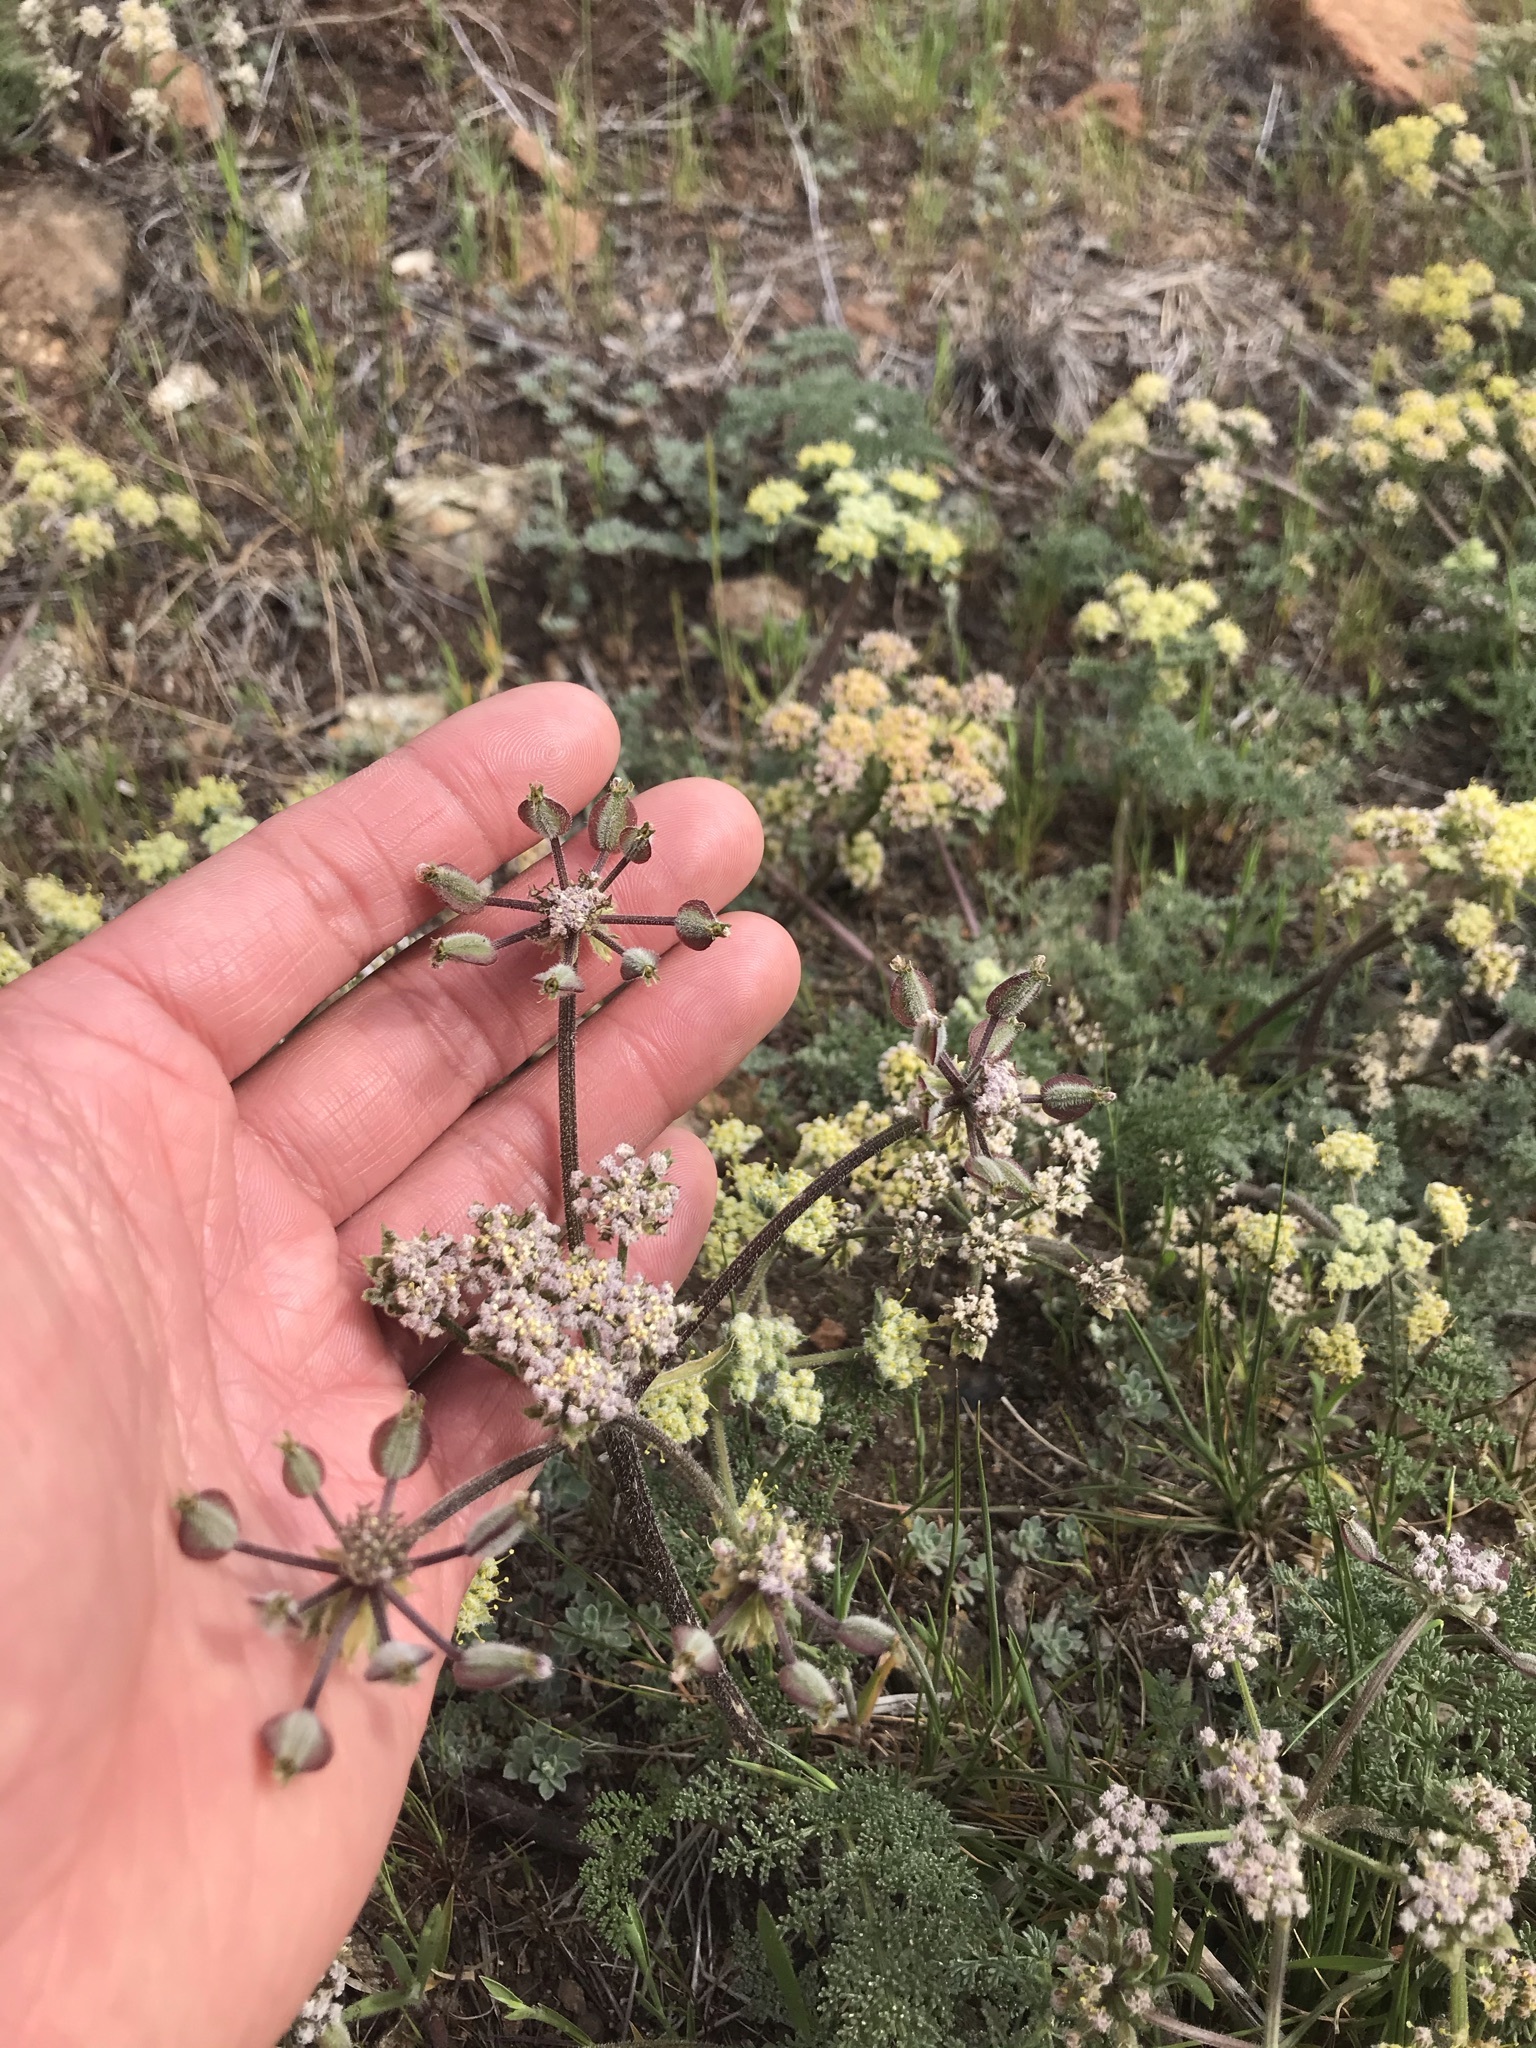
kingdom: Plantae
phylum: Tracheophyta
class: Magnoliopsida
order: Apiales
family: Apiaceae
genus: Lomatium
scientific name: Lomatium dasycarpum
